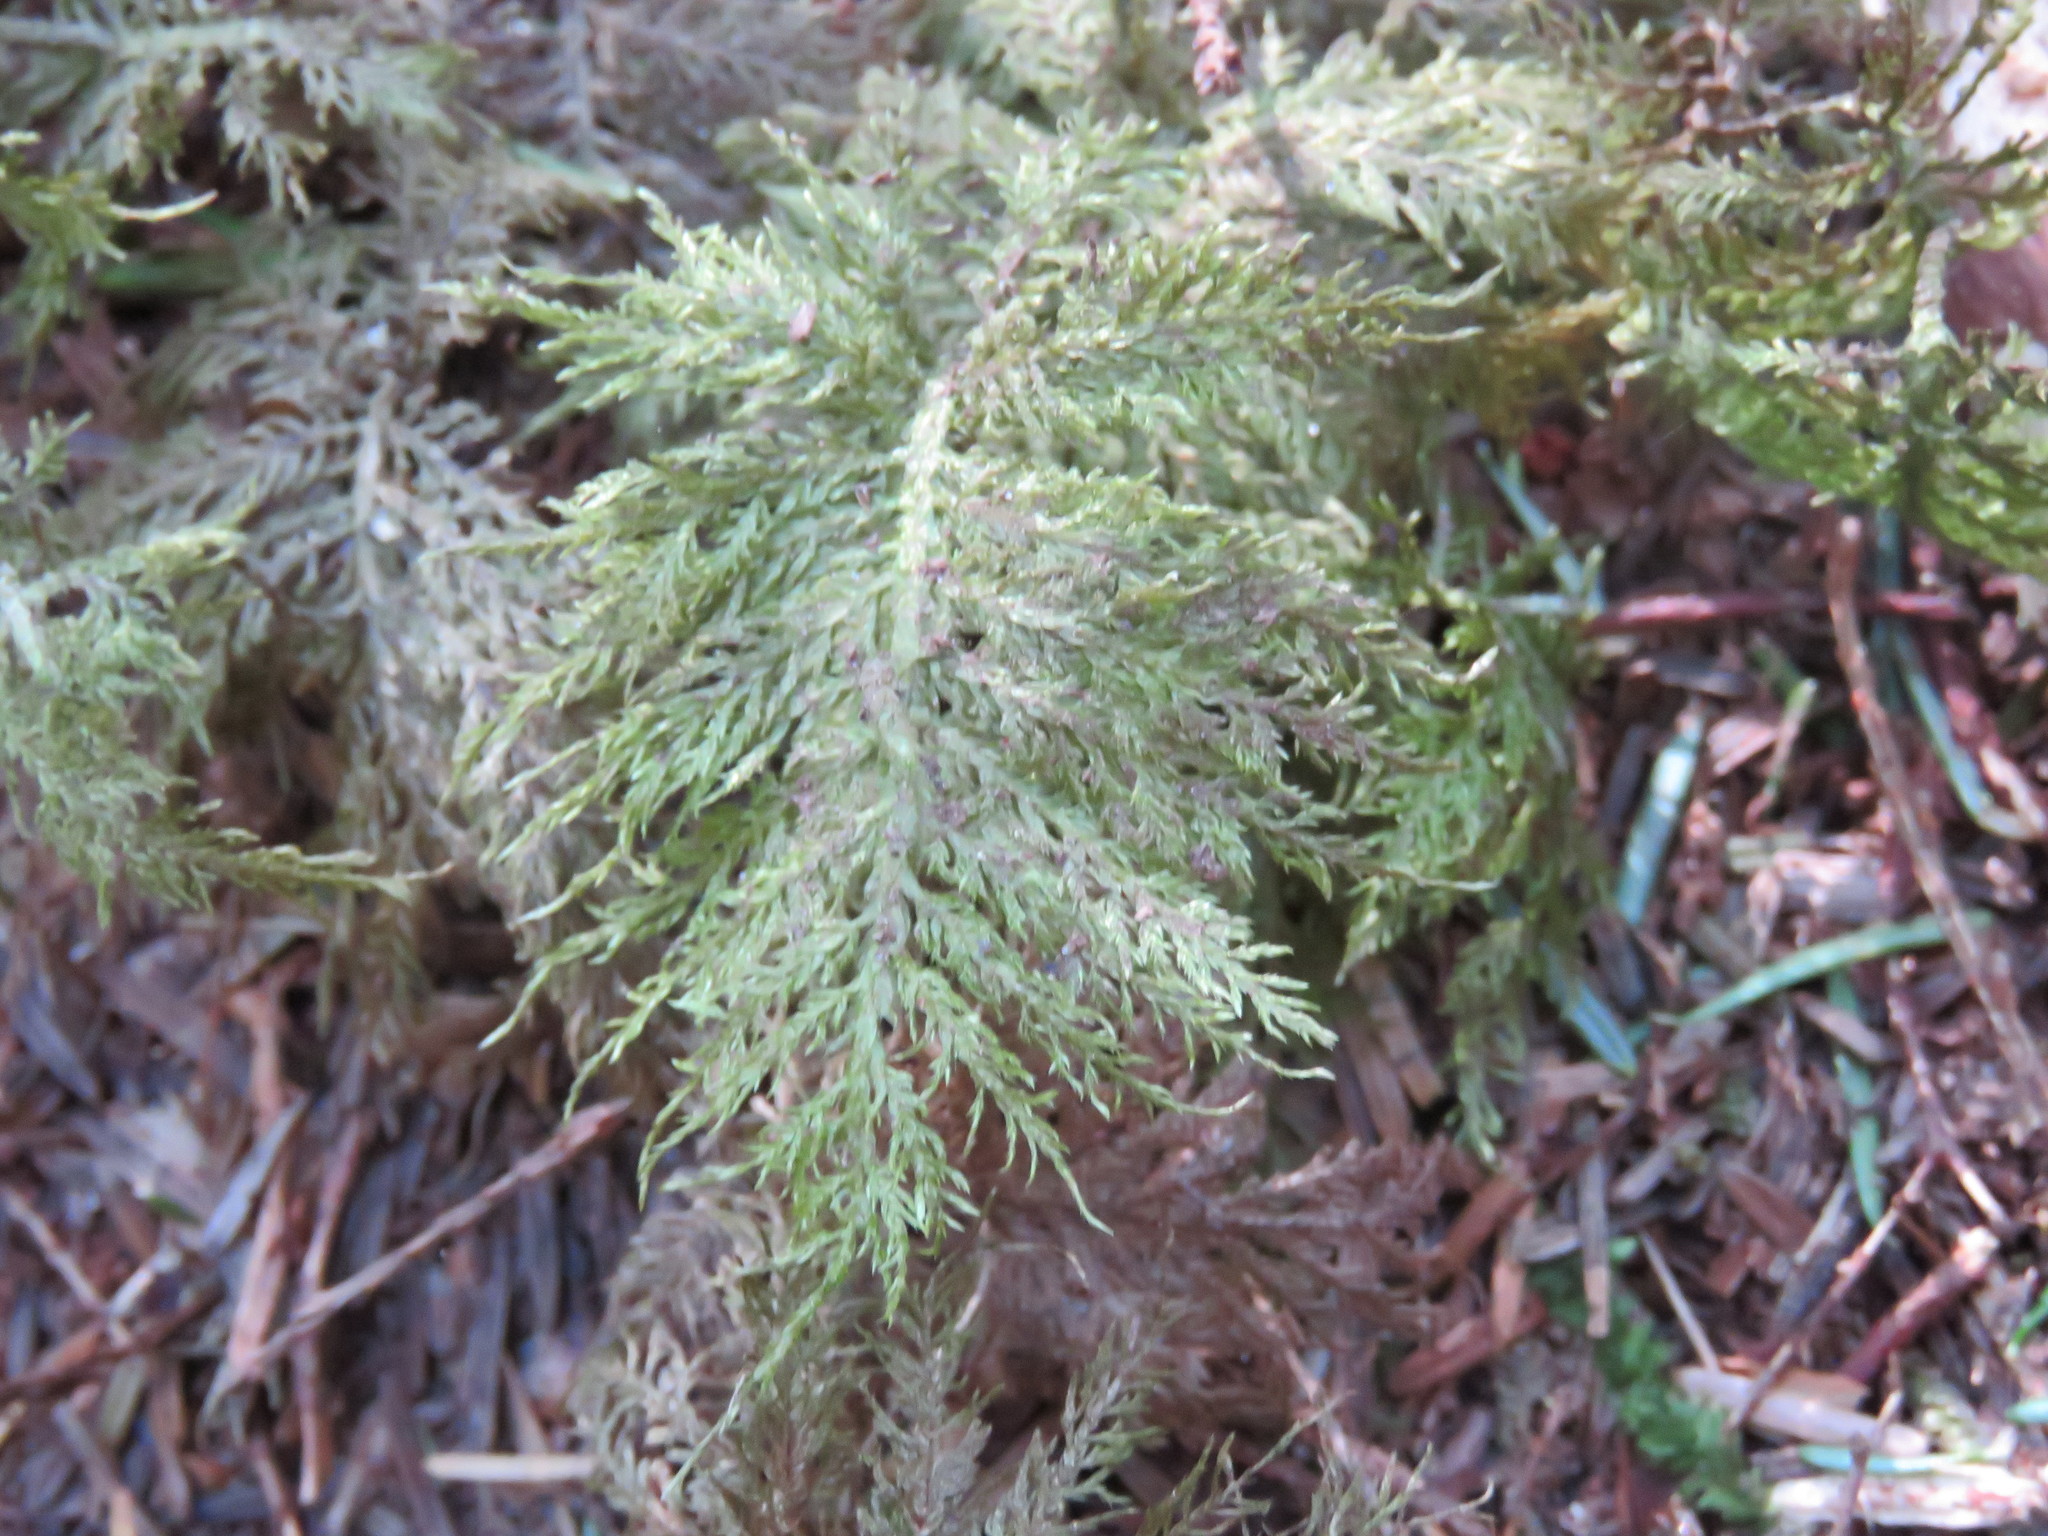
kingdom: Plantae
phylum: Bryophyta
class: Bryopsida
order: Hypnales
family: Hylocomiaceae
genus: Hylocomium
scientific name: Hylocomium splendens
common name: Stairstep moss
